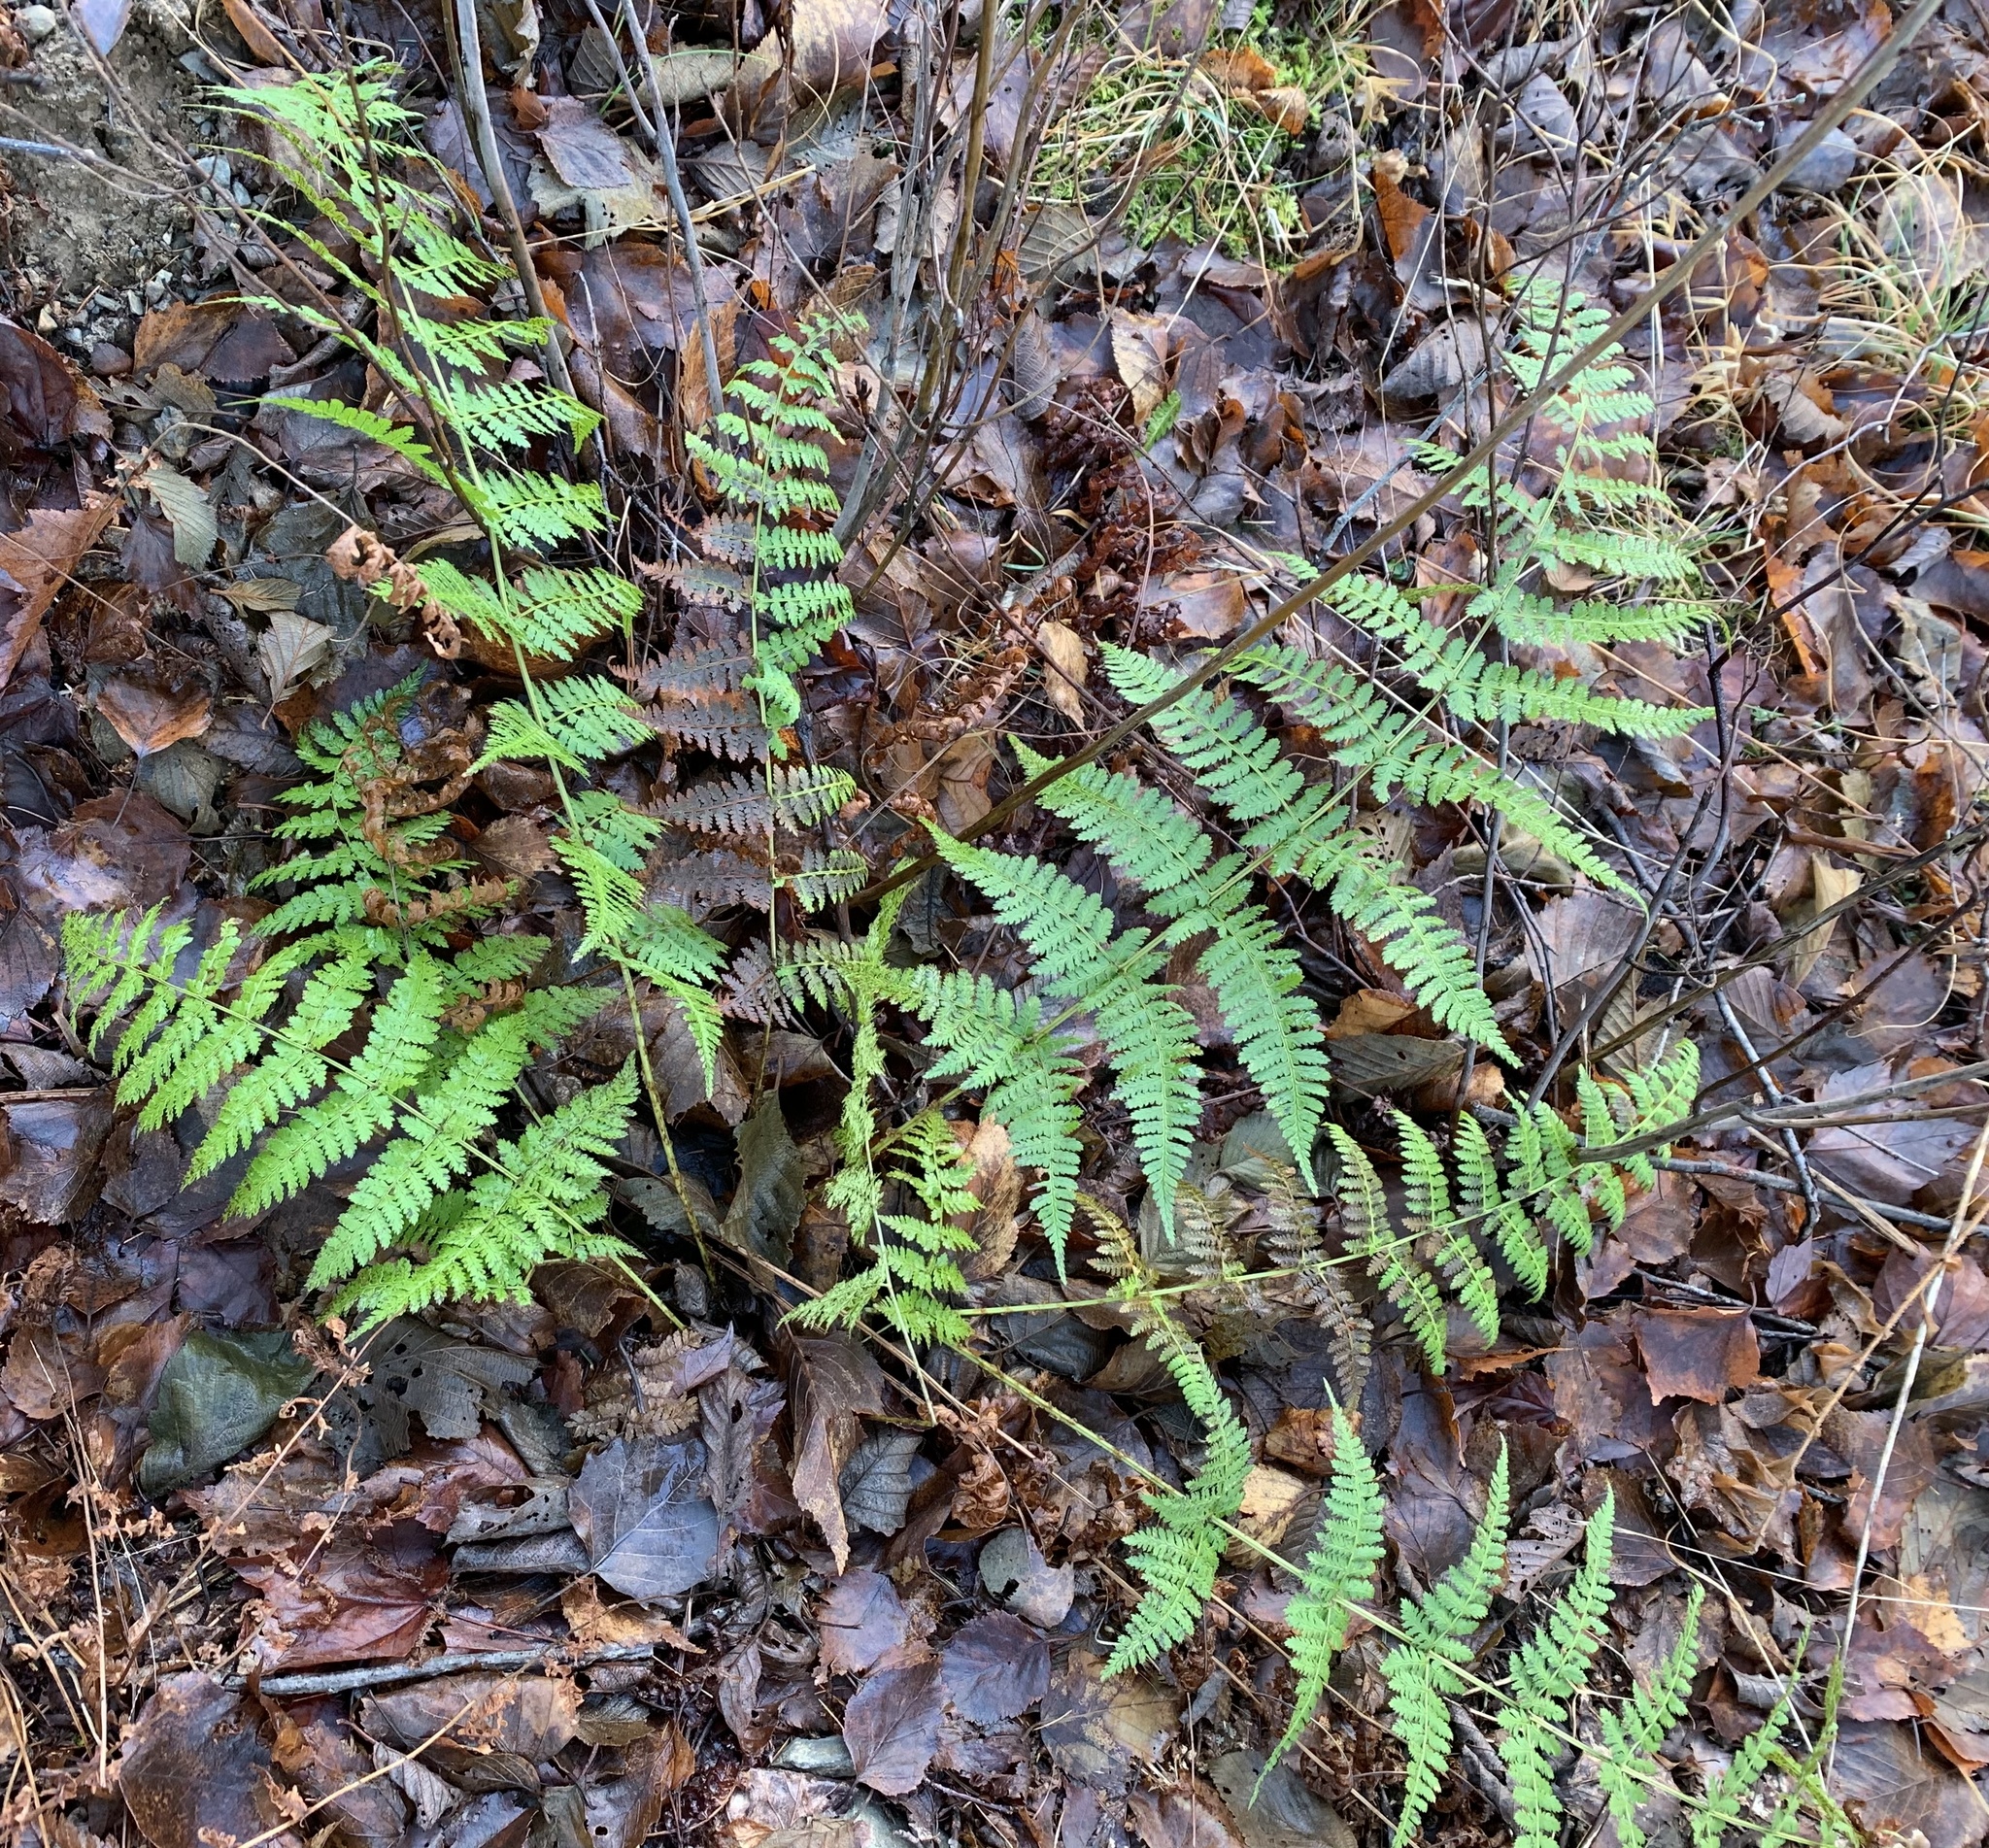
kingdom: Plantae
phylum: Tracheophyta
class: Polypodiopsida
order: Polypodiales
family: Dryopteridaceae
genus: Dryopteris
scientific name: Dryopteris intermedia
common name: Evergreen wood fern
